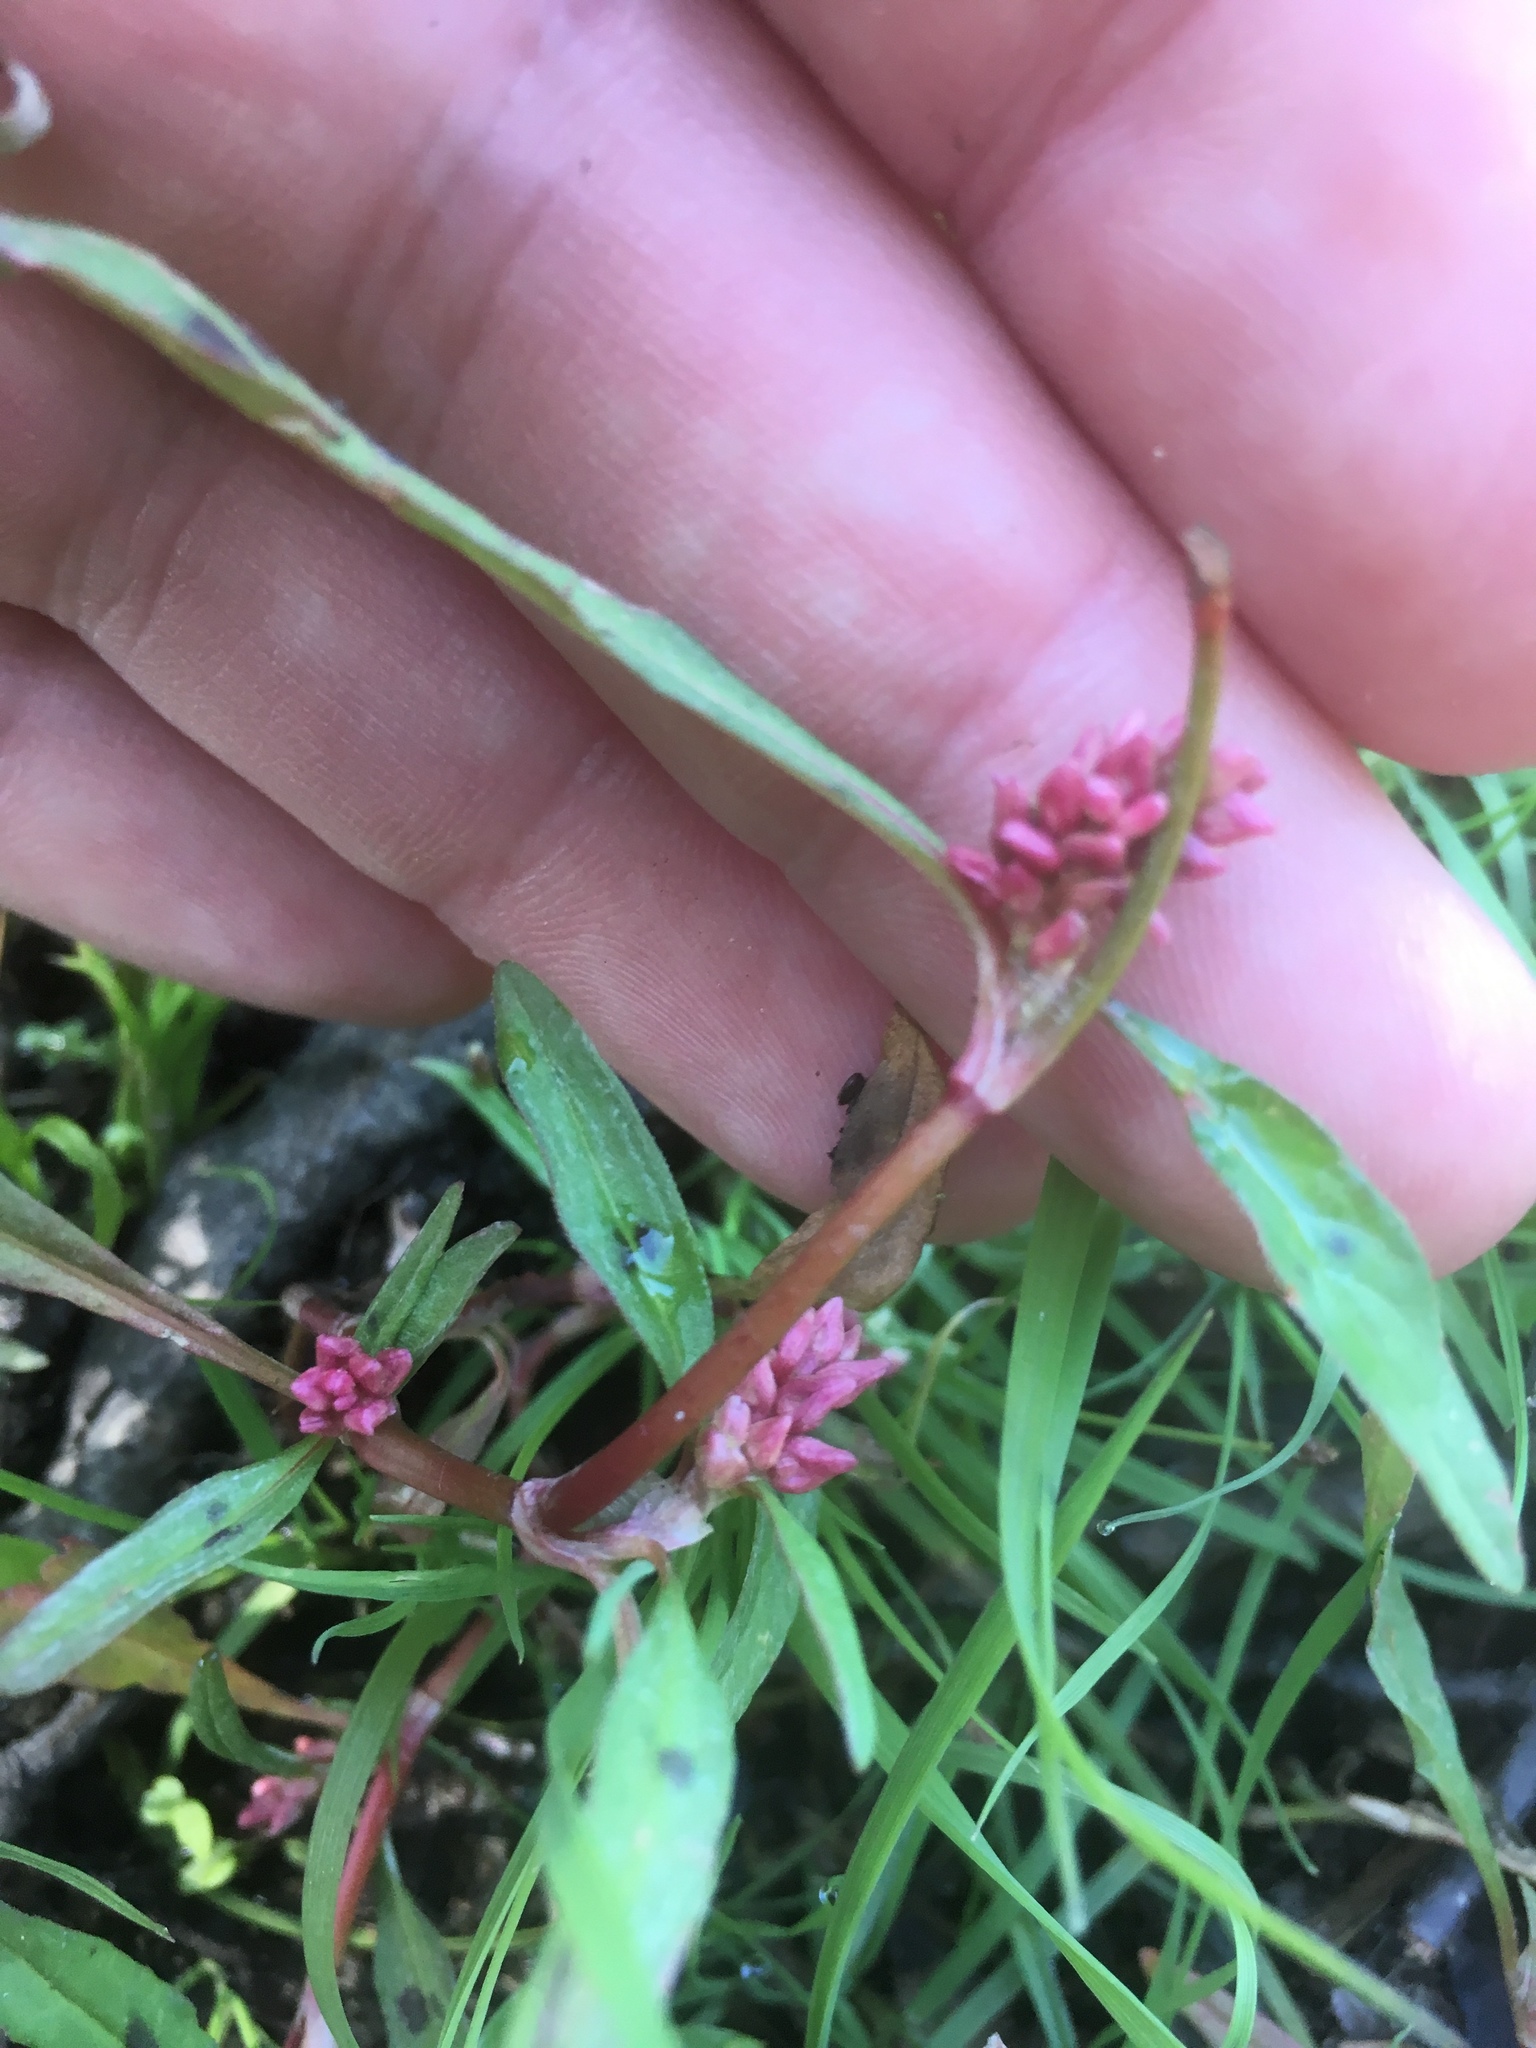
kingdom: Plantae
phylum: Tracheophyta
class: Magnoliopsida
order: Caryophyllales
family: Polygonaceae
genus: Persicaria
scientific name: Persicaria lapathifolia
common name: Curlytop knotweed
